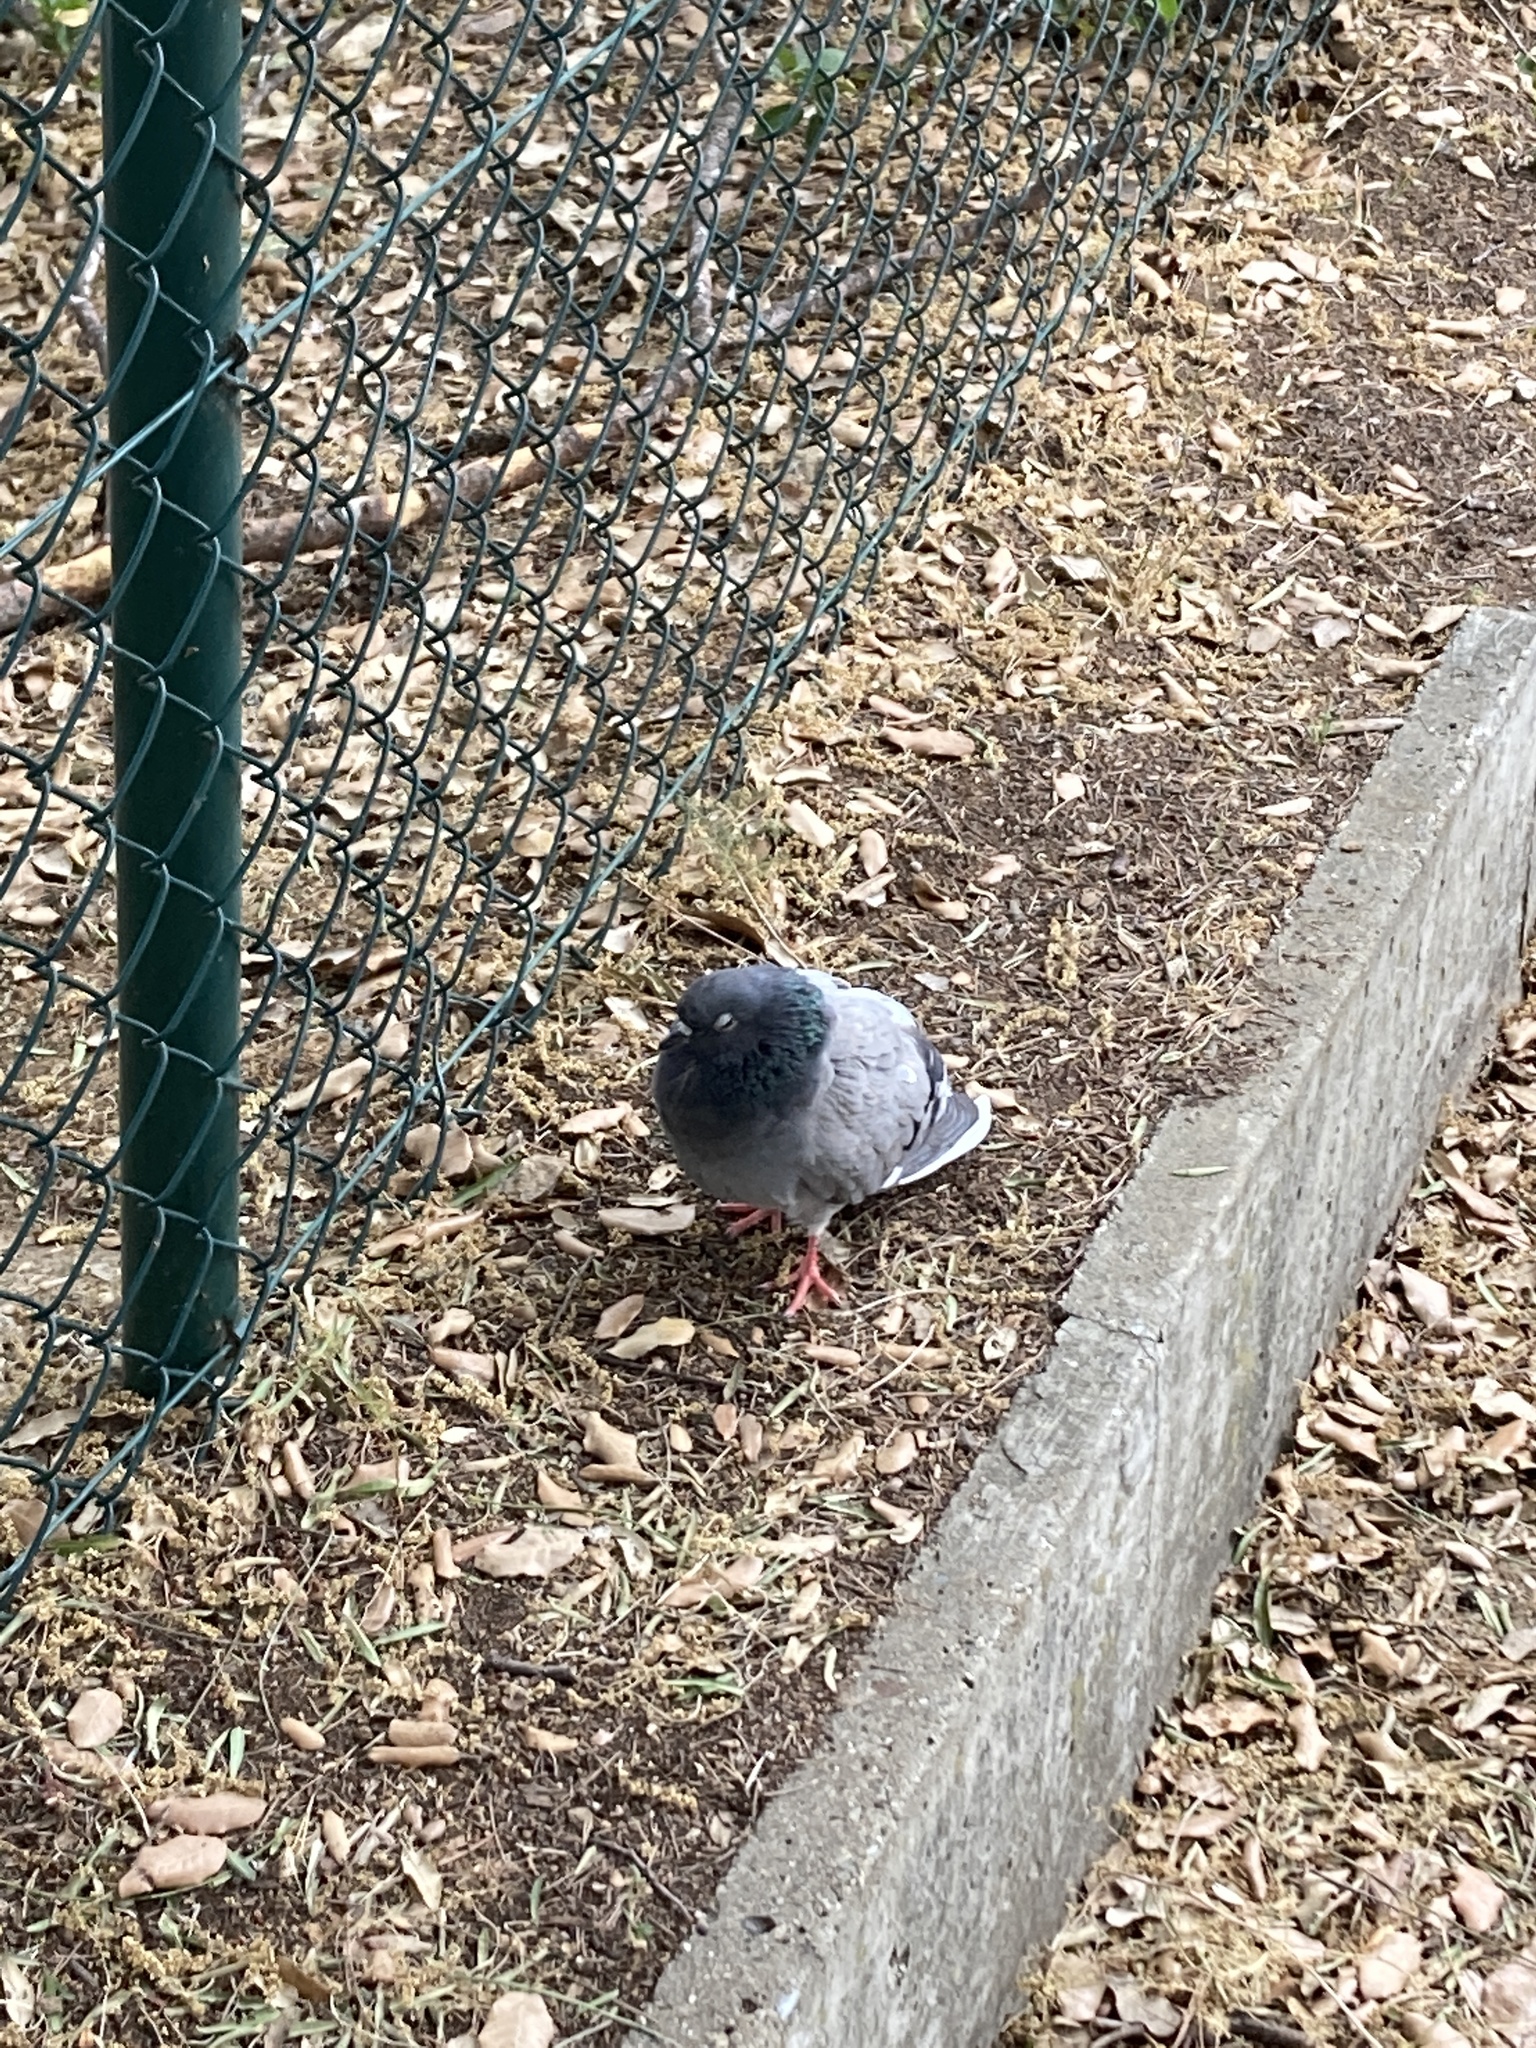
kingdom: Animalia
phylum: Chordata
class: Aves
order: Columbiformes
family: Columbidae
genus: Columba
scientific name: Columba livia
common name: Rock pigeon
